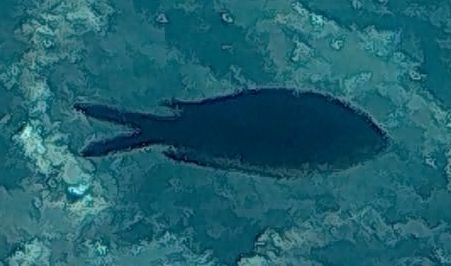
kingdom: Animalia
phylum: Chordata
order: Perciformes
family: Pomacentridae
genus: Chromis
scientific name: Chromis chromis
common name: Damselfish
